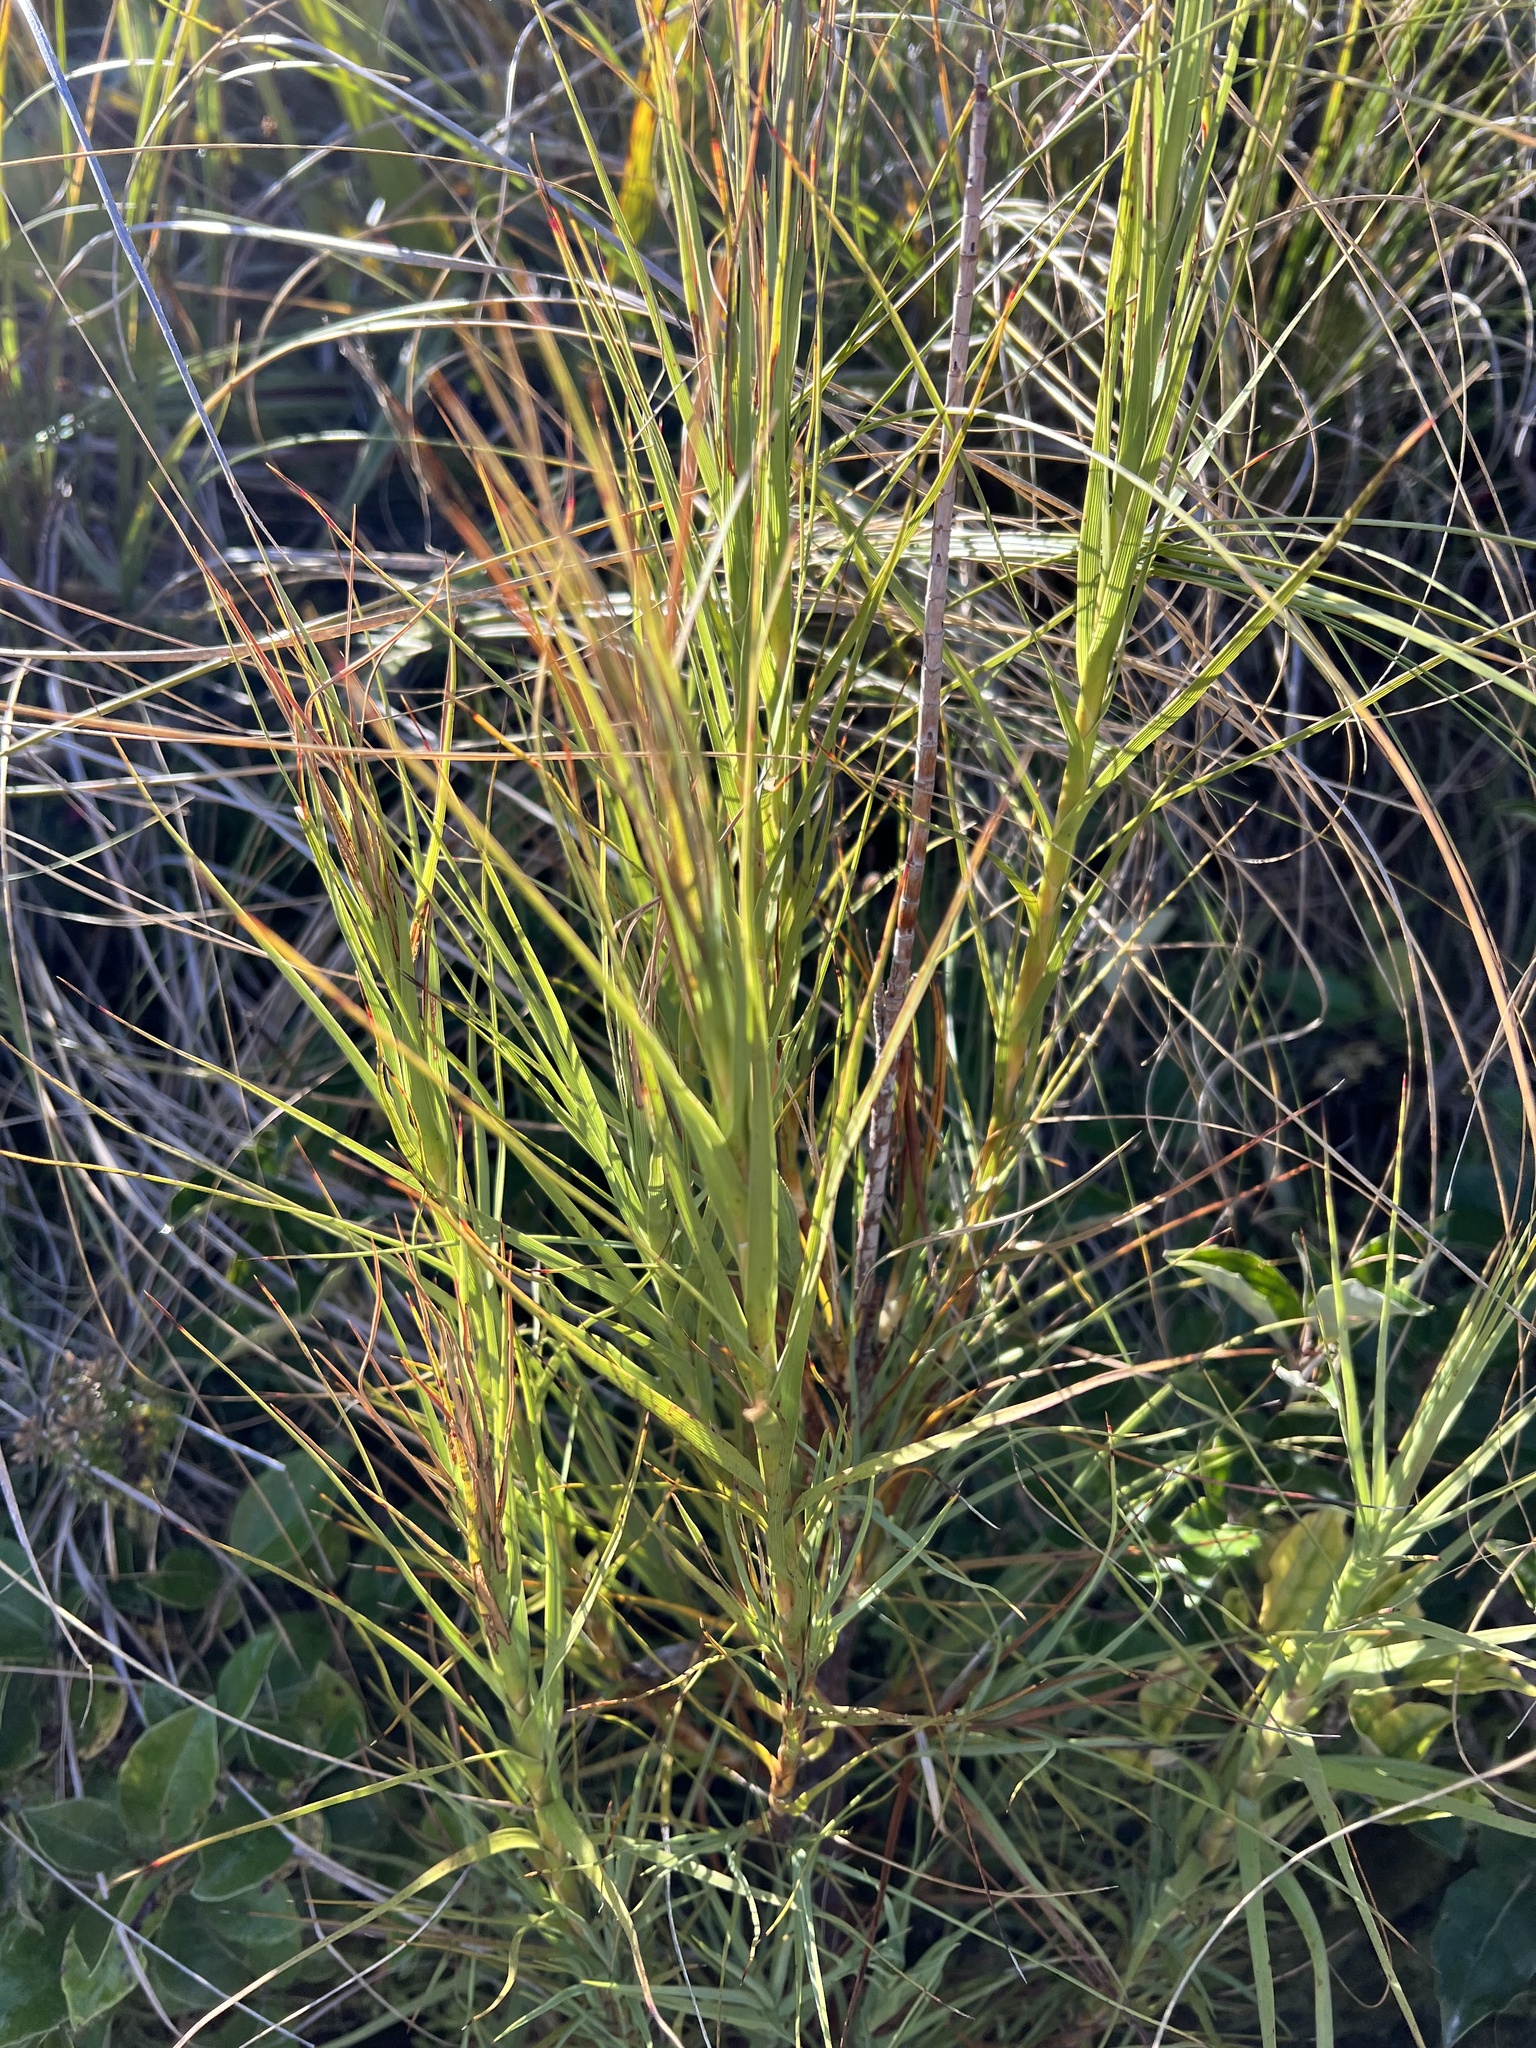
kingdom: Plantae
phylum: Tracheophyta
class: Magnoliopsida
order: Ericales
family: Ericaceae
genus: Dracophyllum
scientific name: Dracophyllum longifolium
